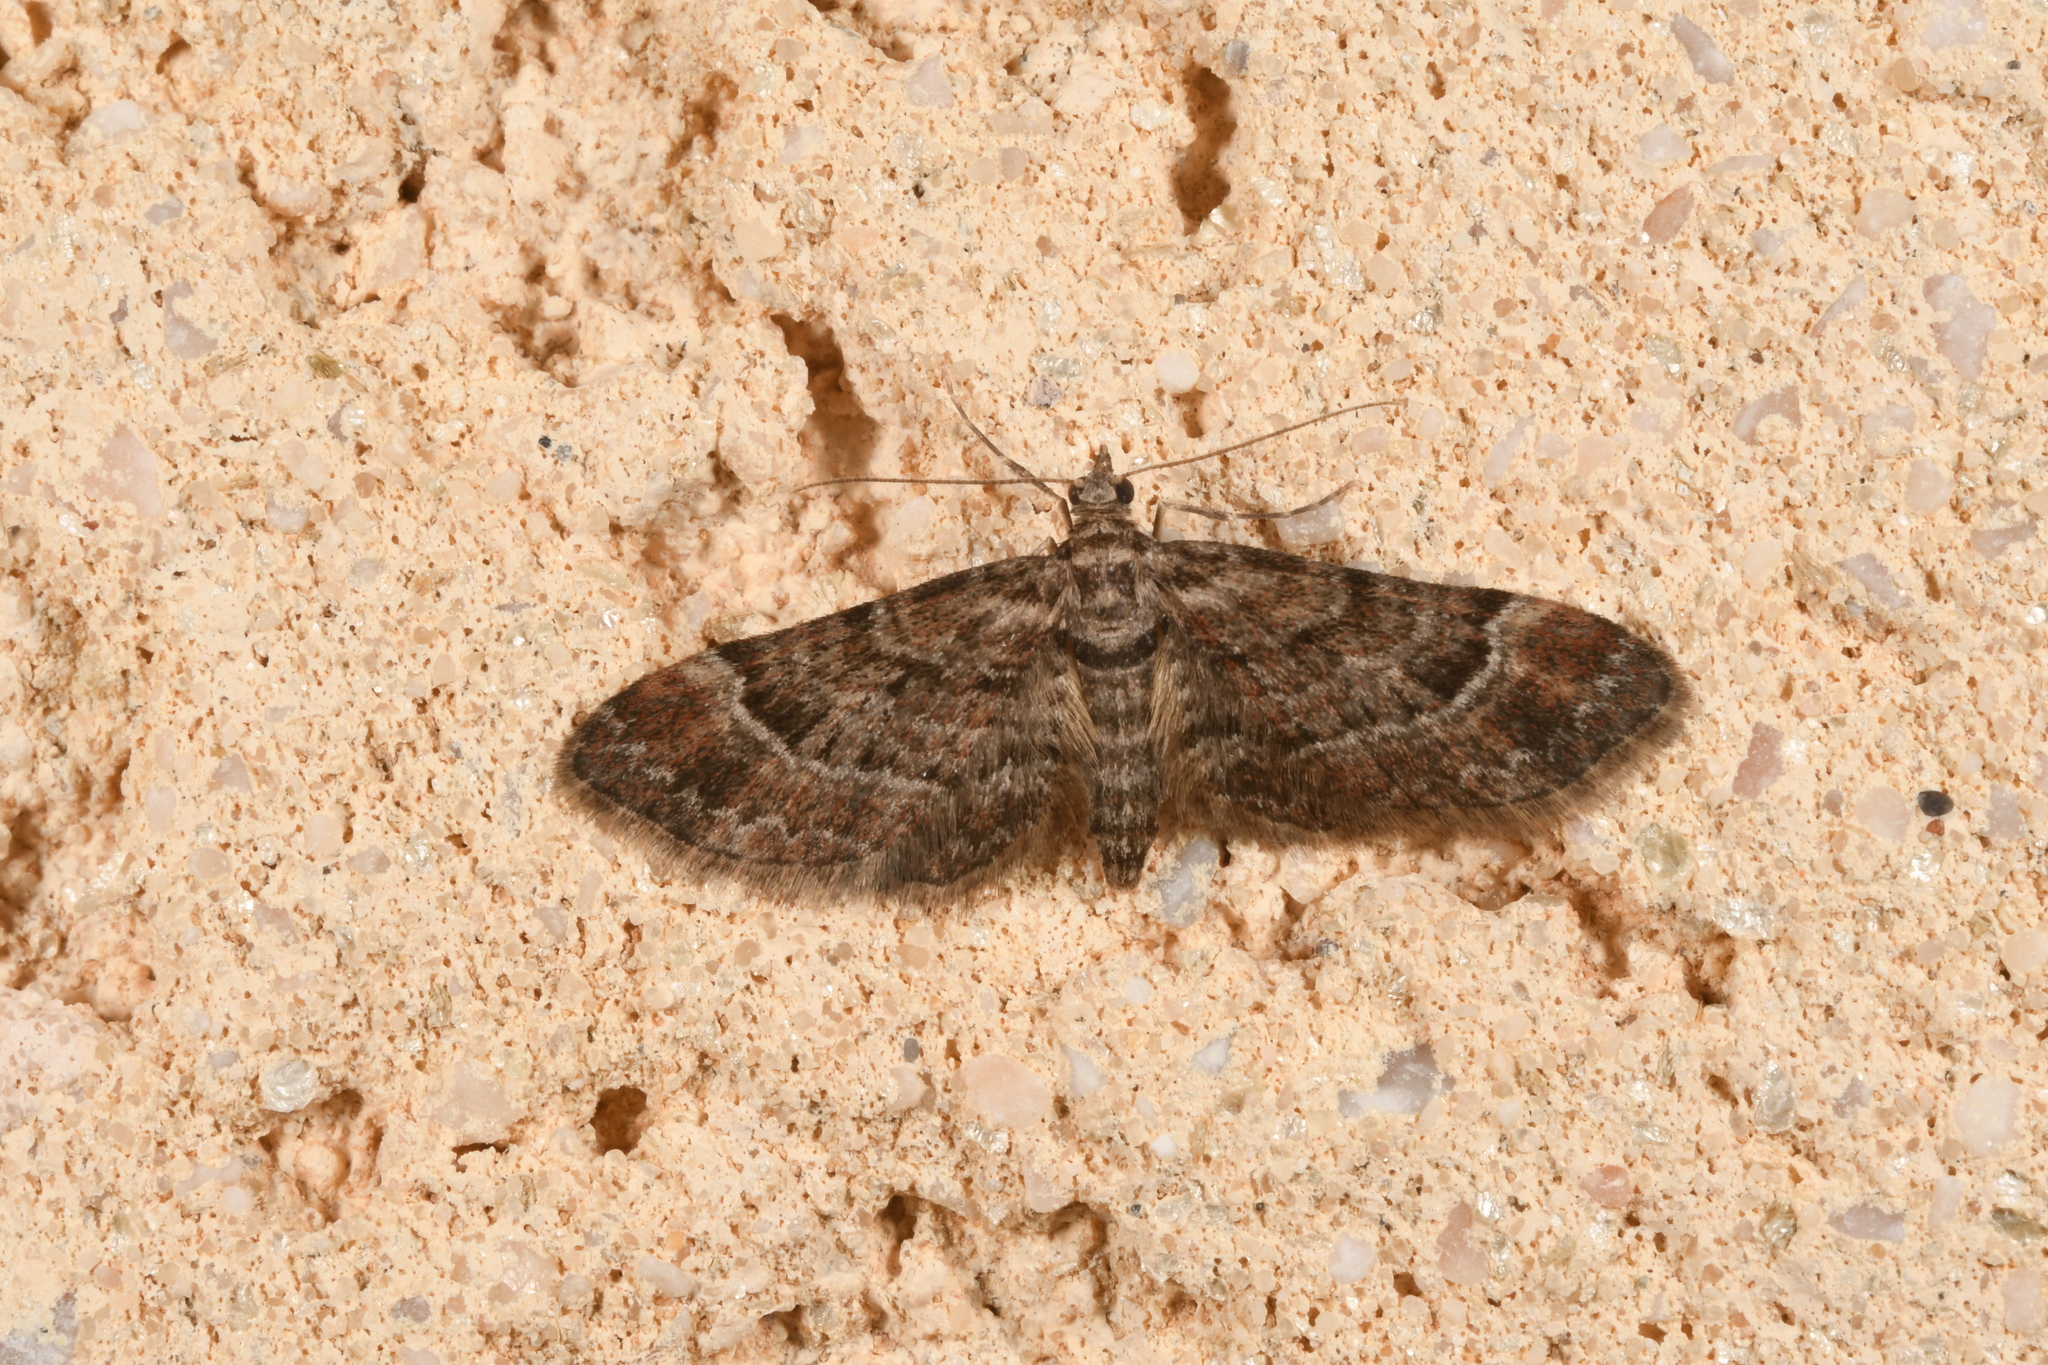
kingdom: Animalia
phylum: Arthropoda
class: Insecta
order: Lepidoptera
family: Geometridae
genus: Gymnoscelis
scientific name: Gymnoscelis rufifasciata
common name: Double-striped pug
